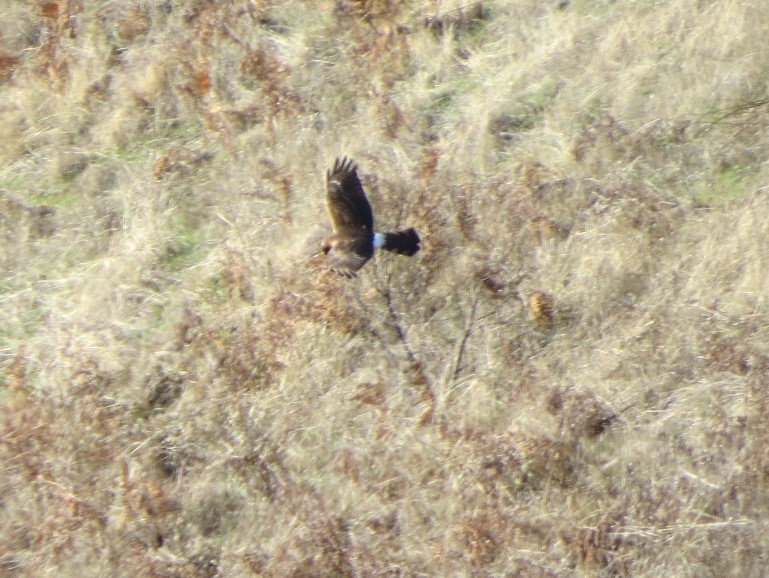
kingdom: Animalia
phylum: Chordata
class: Aves
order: Accipitriformes
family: Accipitridae
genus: Circus
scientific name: Circus cyaneus
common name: Hen harrier
